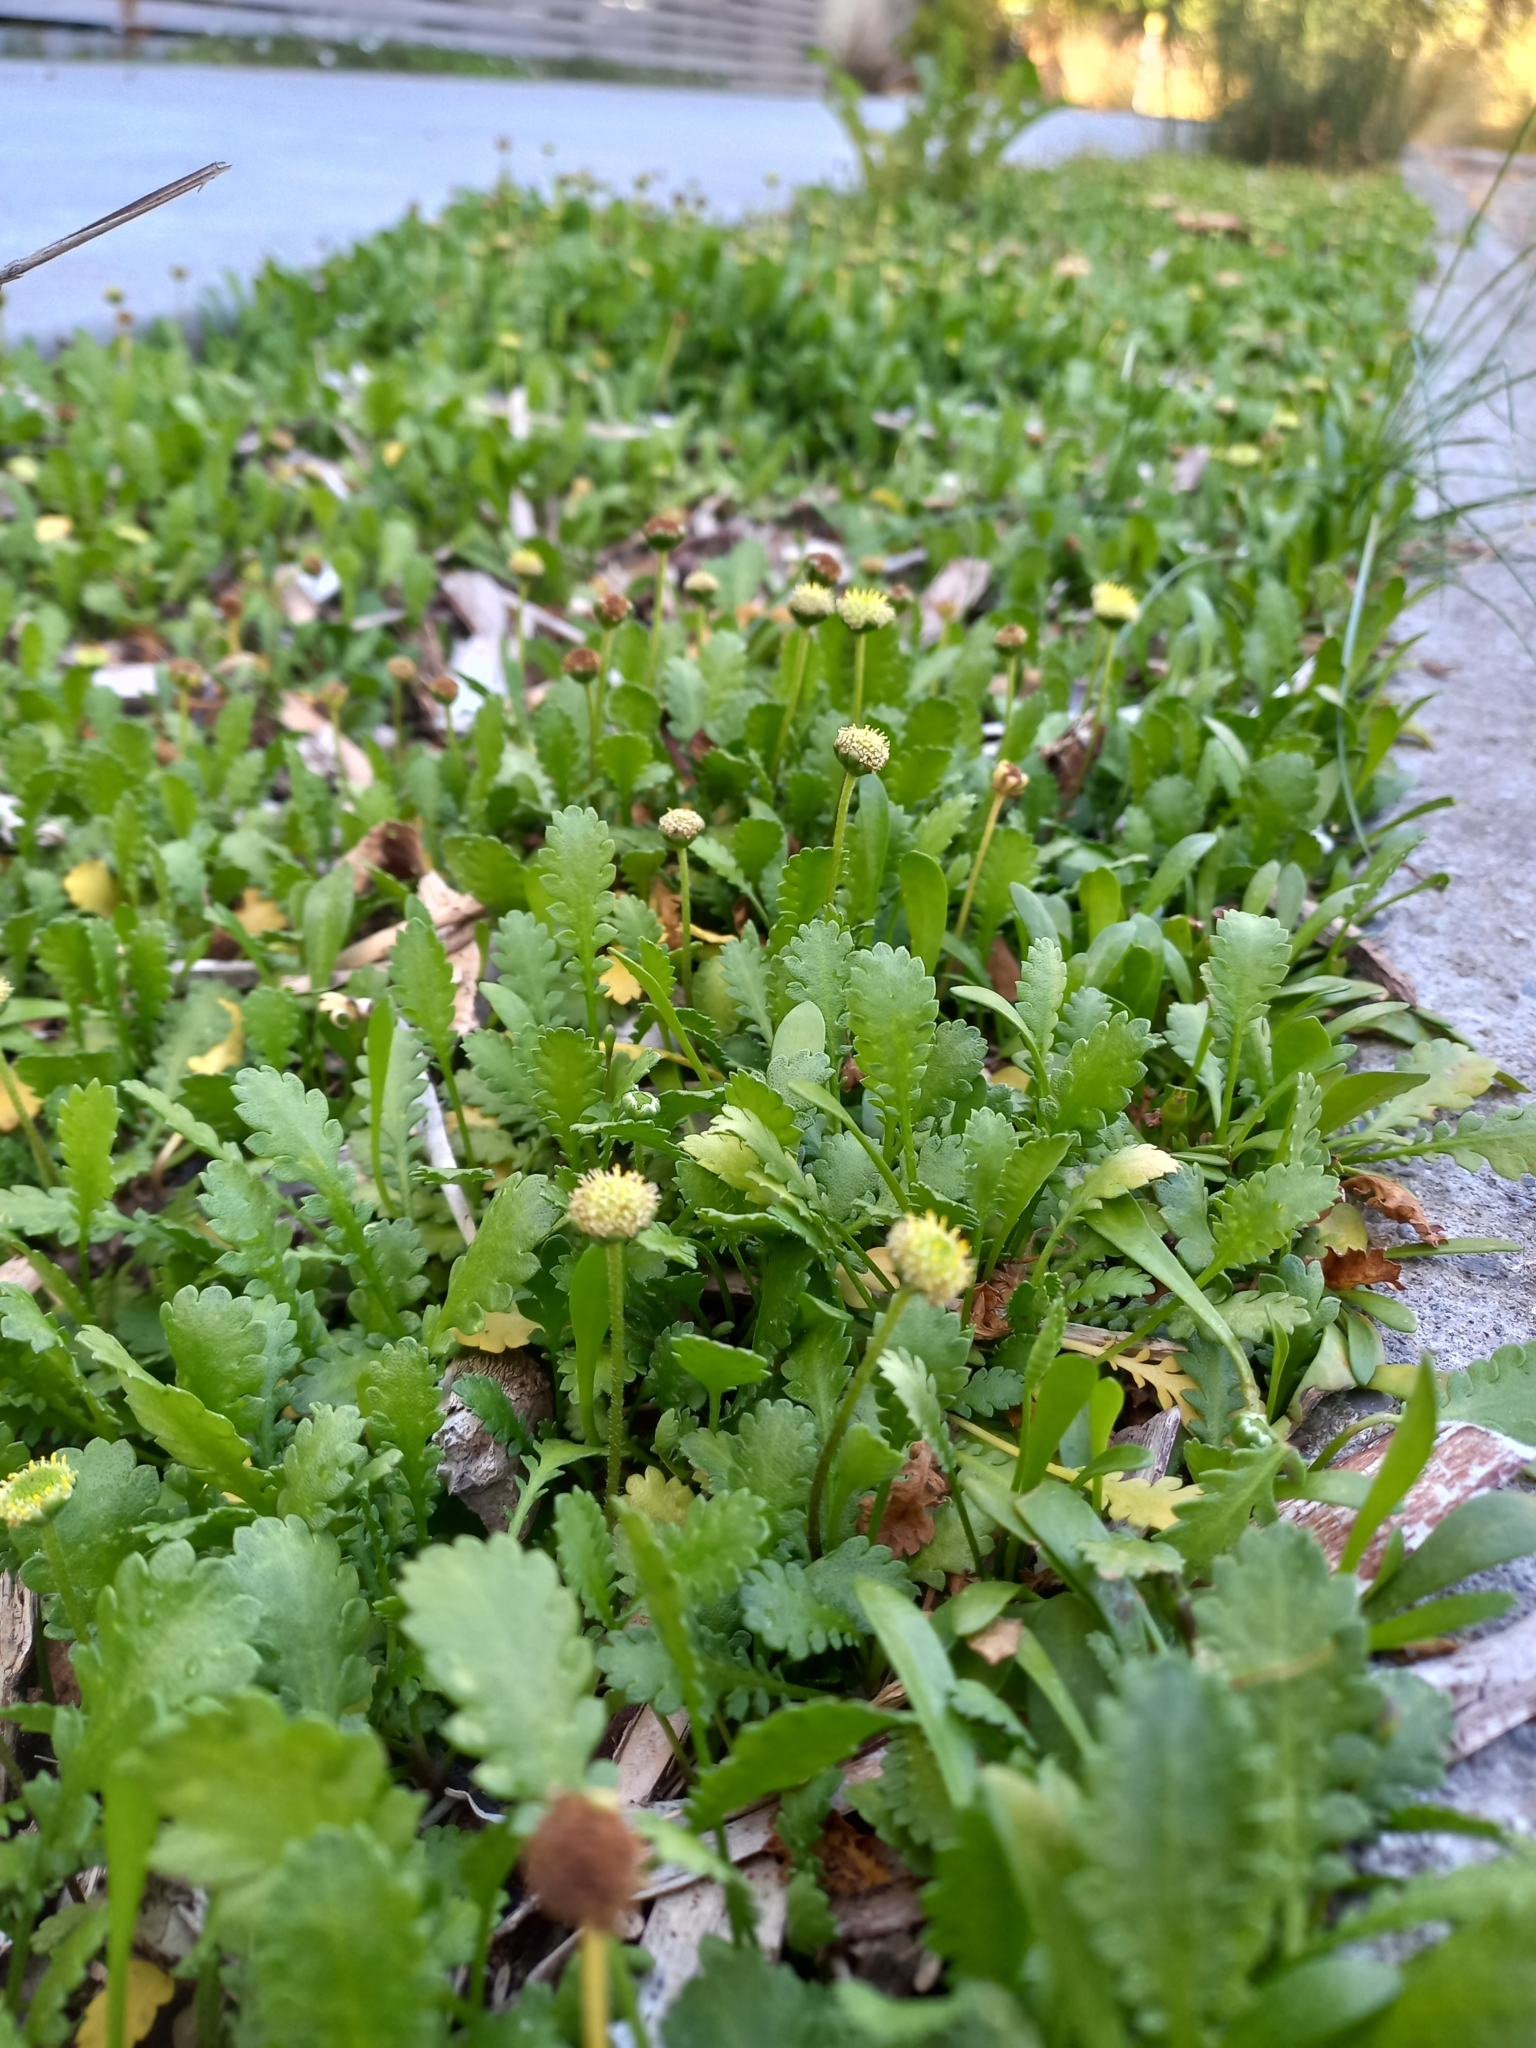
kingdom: Plantae
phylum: Tracheophyta
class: Magnoliopsida
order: Asterales
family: Asteraceae
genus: Leptinella
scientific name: Leptinella dioica
